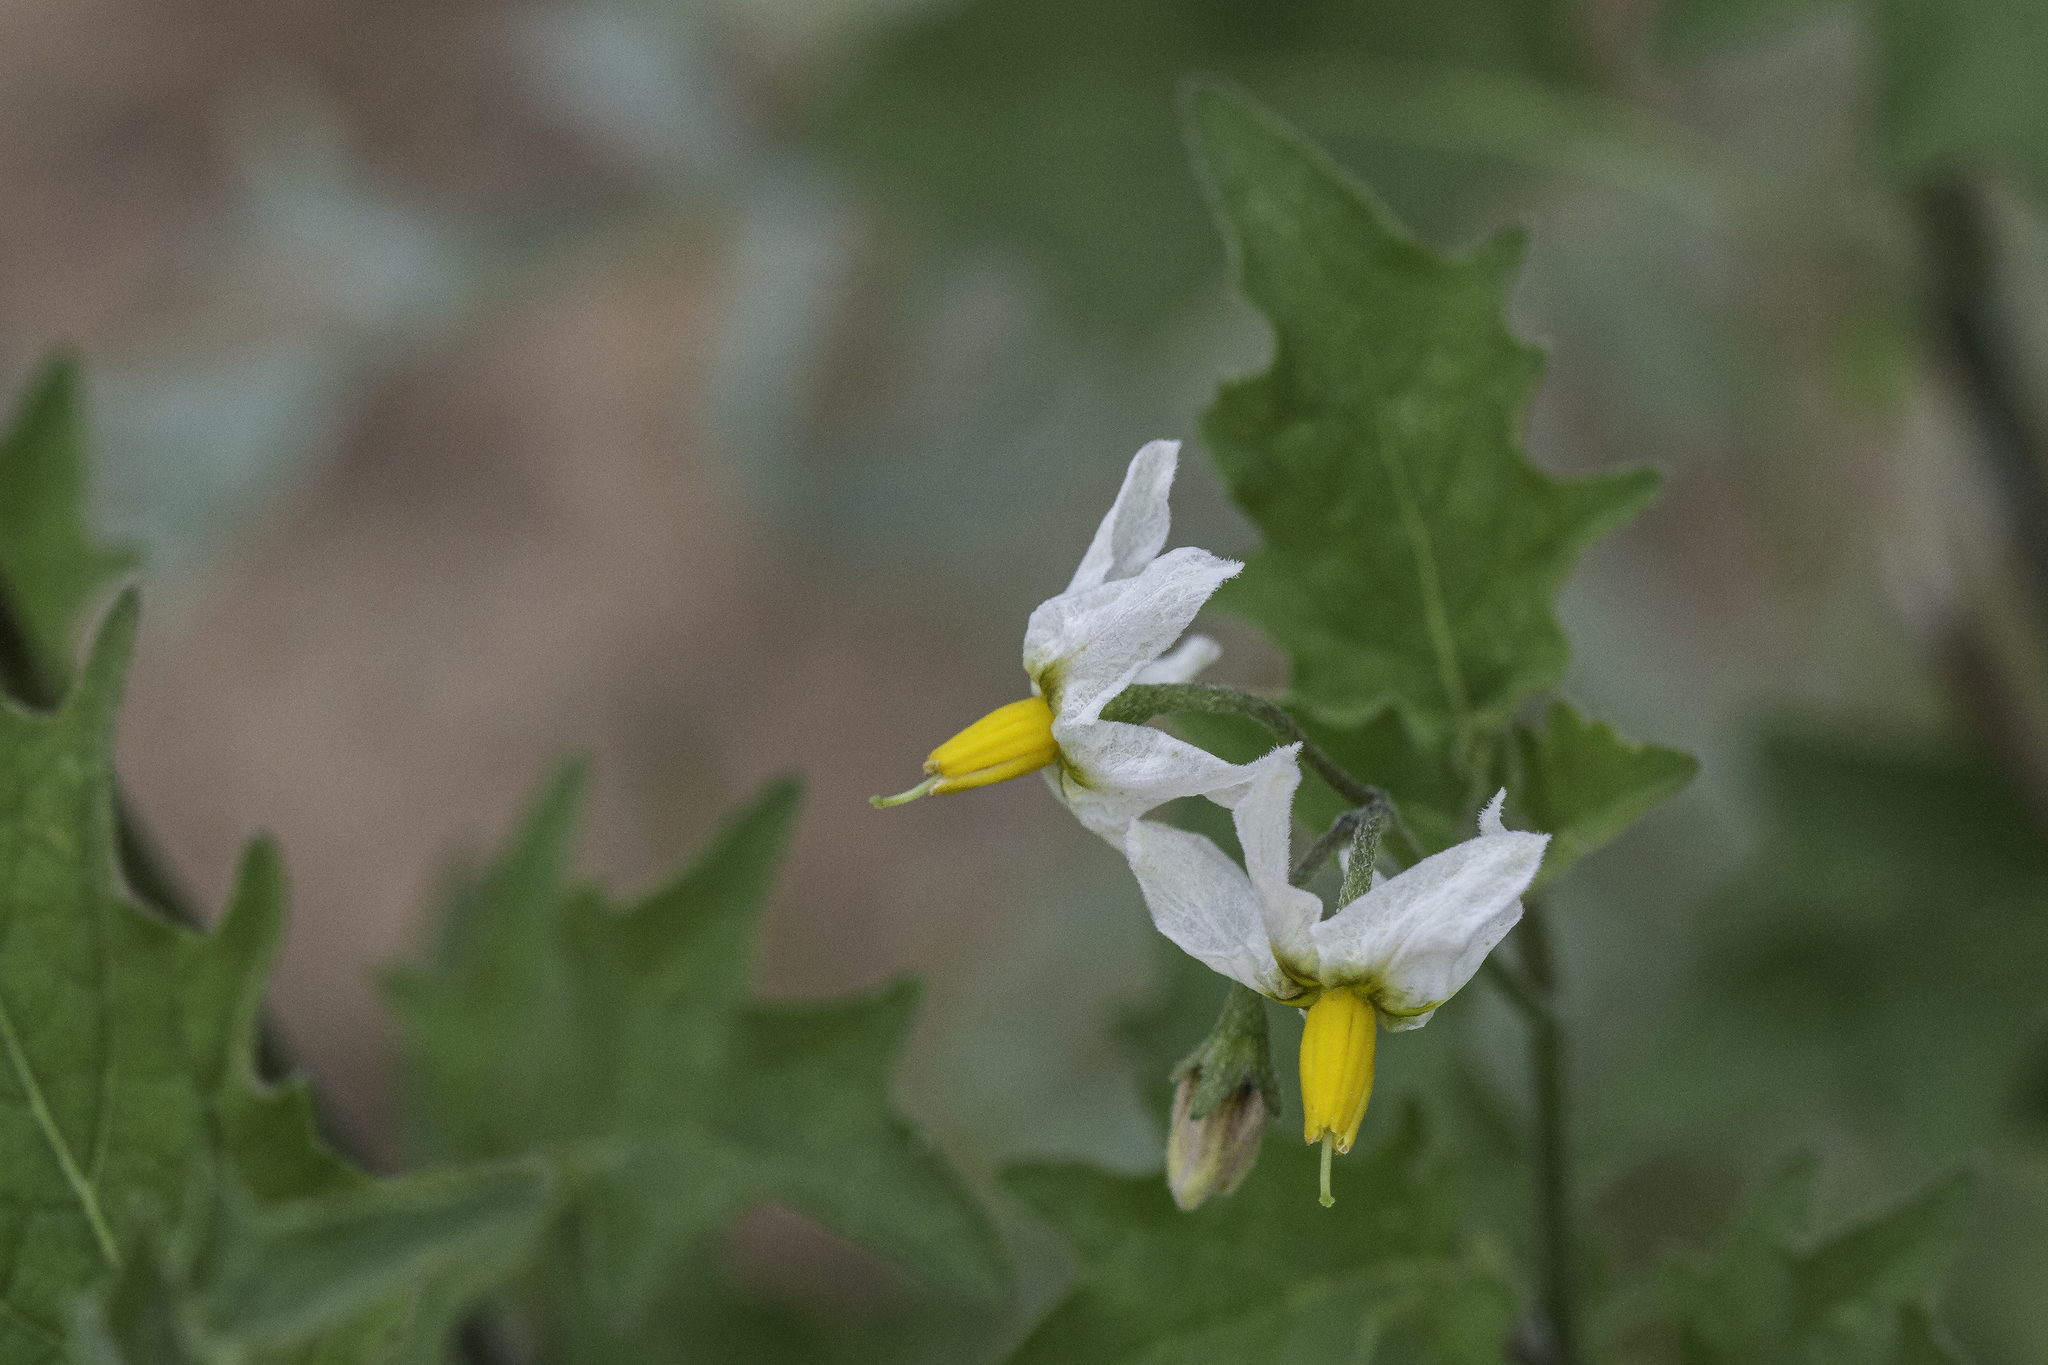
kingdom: Plantae
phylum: Tracheophyta
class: Magnoliopsida
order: Solanales
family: Solanaceae
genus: Solanum
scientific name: Solanum douglasii
